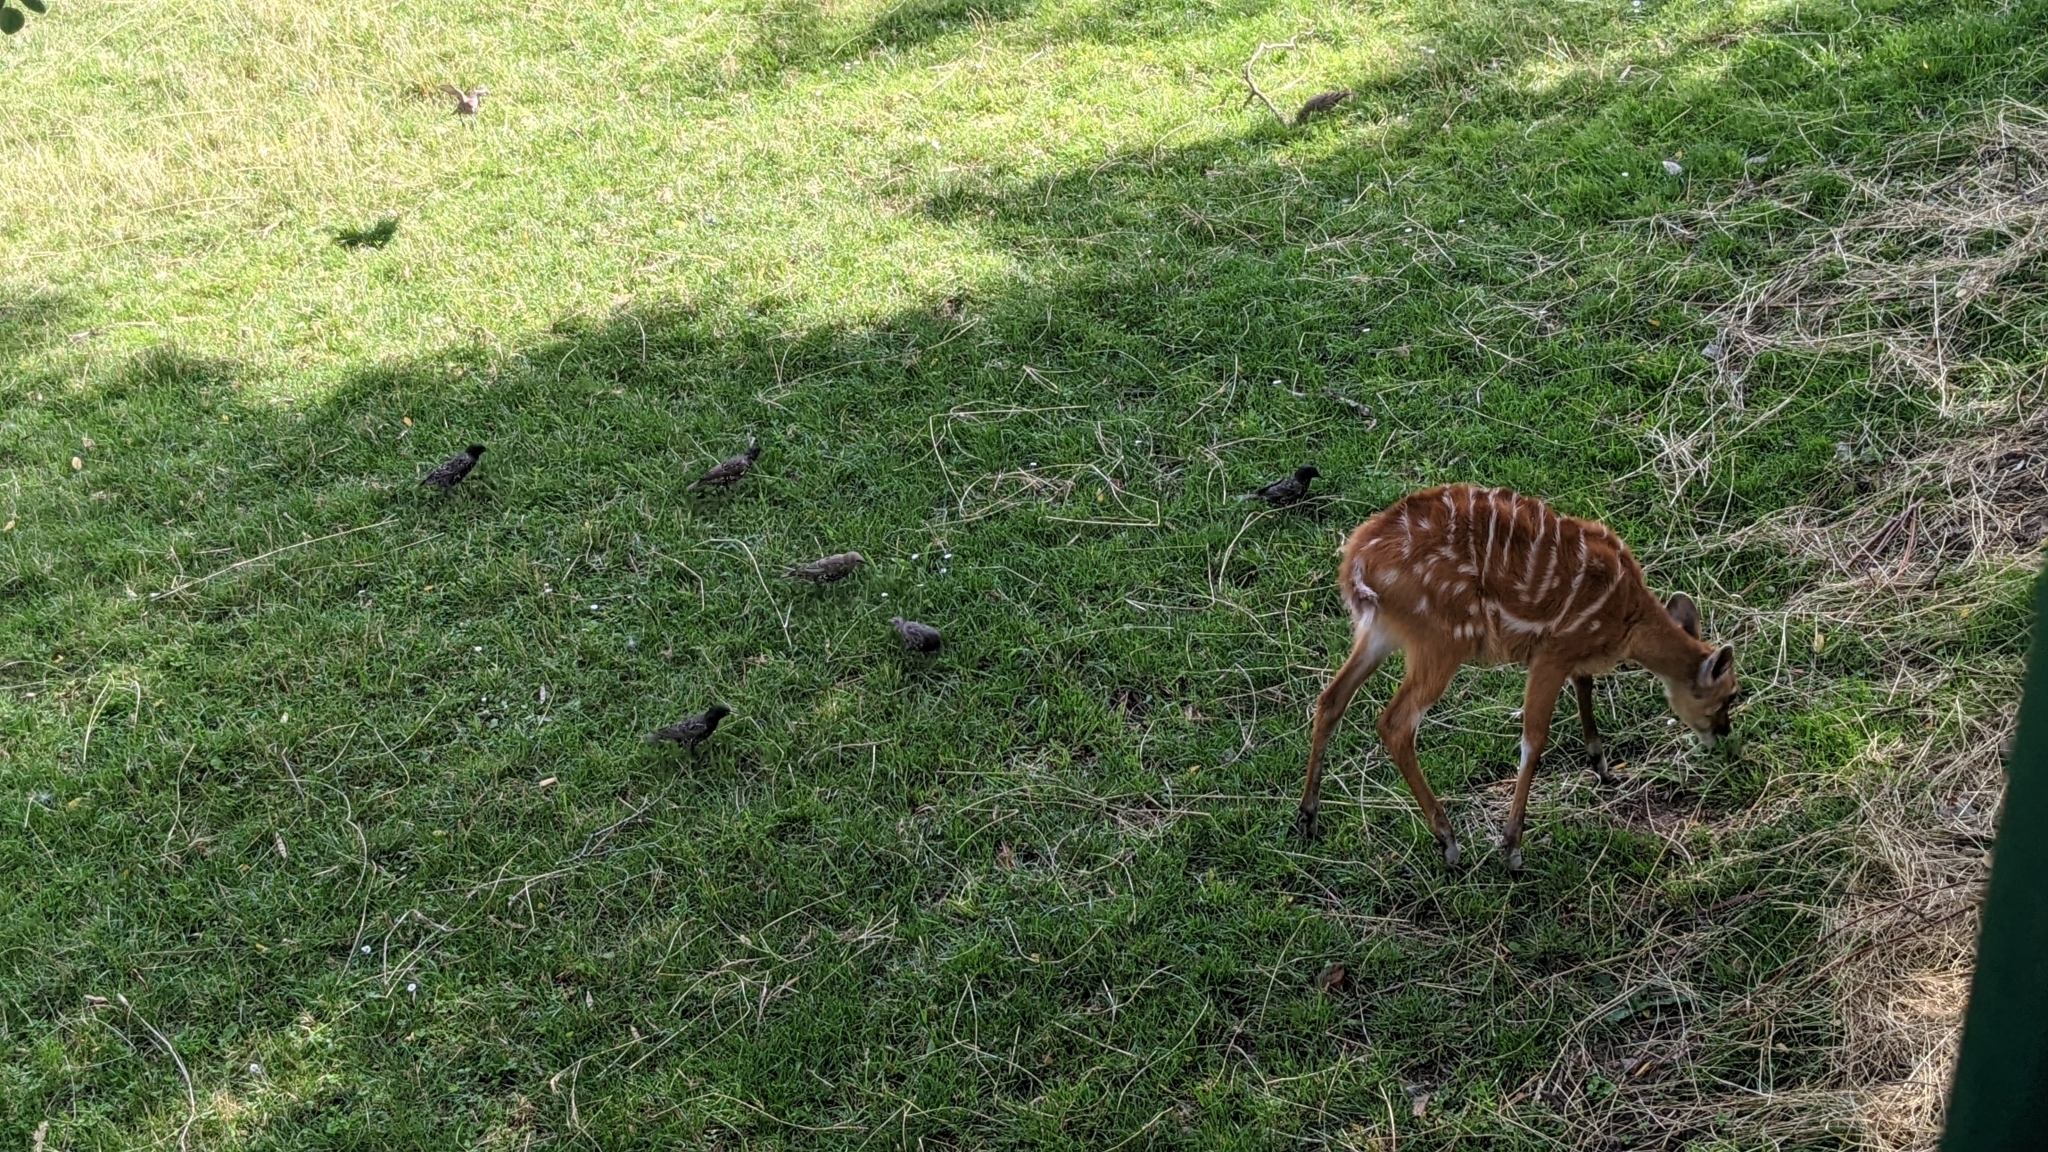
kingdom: Animalia
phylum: Chordata
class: Aves
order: Passeriformes
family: Sturnidae
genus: Sturnus
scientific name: Sturnus vulgaris
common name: Common starling
